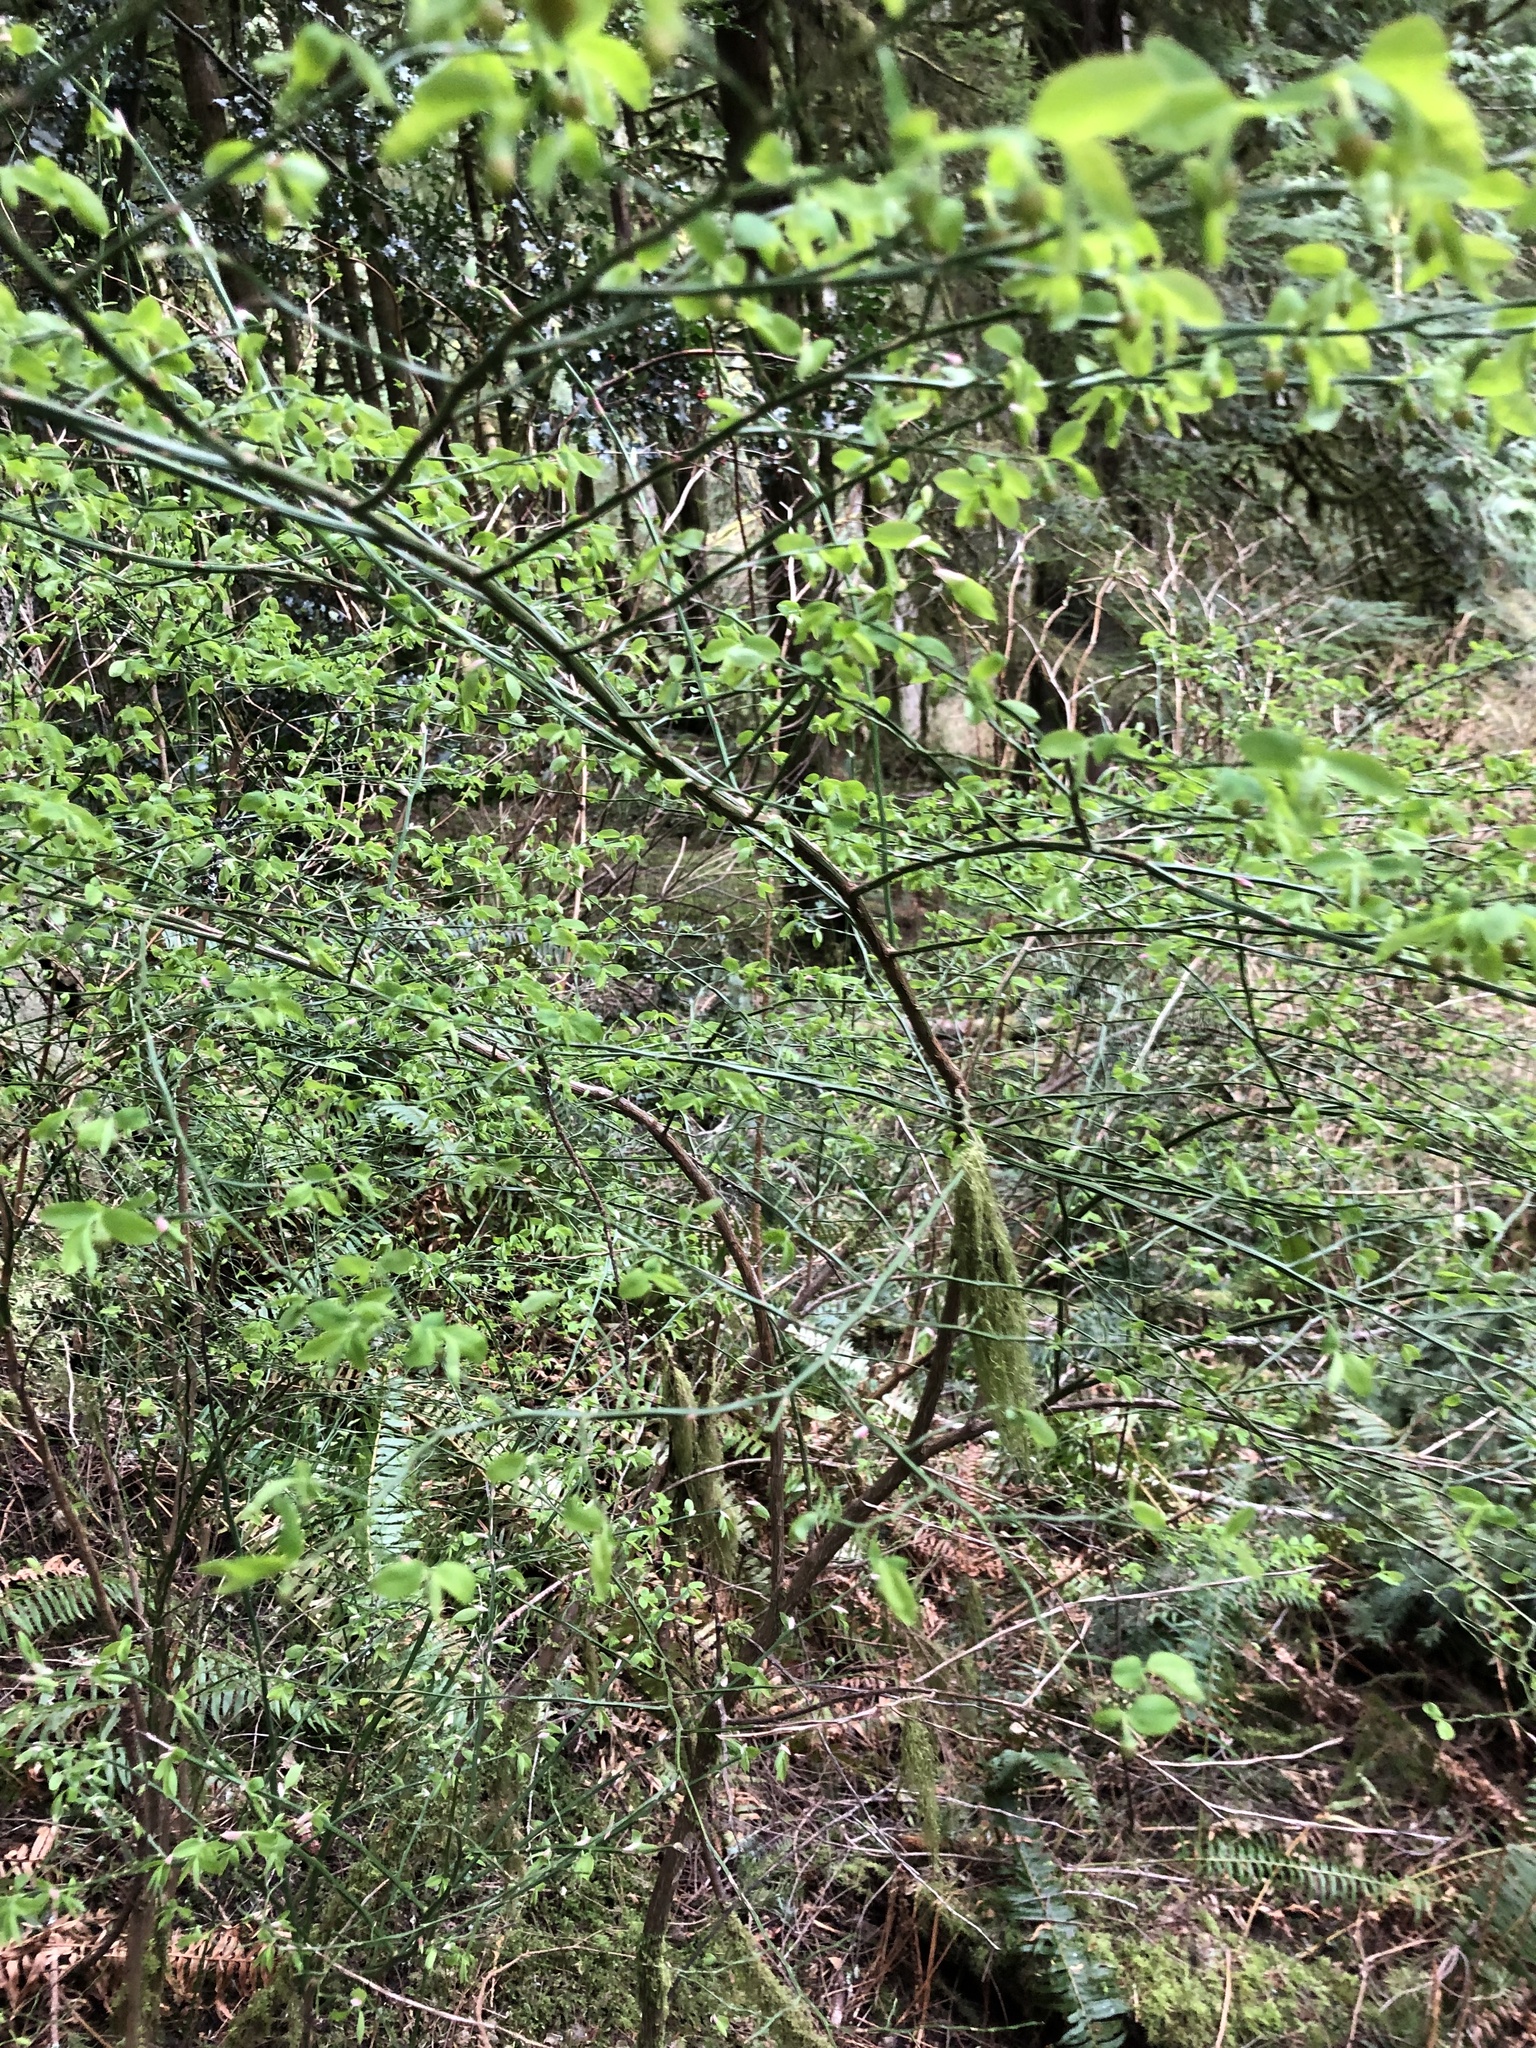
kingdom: Plantae
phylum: Tracheophyta
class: Magnoliopsida
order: Ericales
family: Ericaceae
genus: Vaccinium
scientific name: Vaccinium parvifolium
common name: Red-huckleberry
